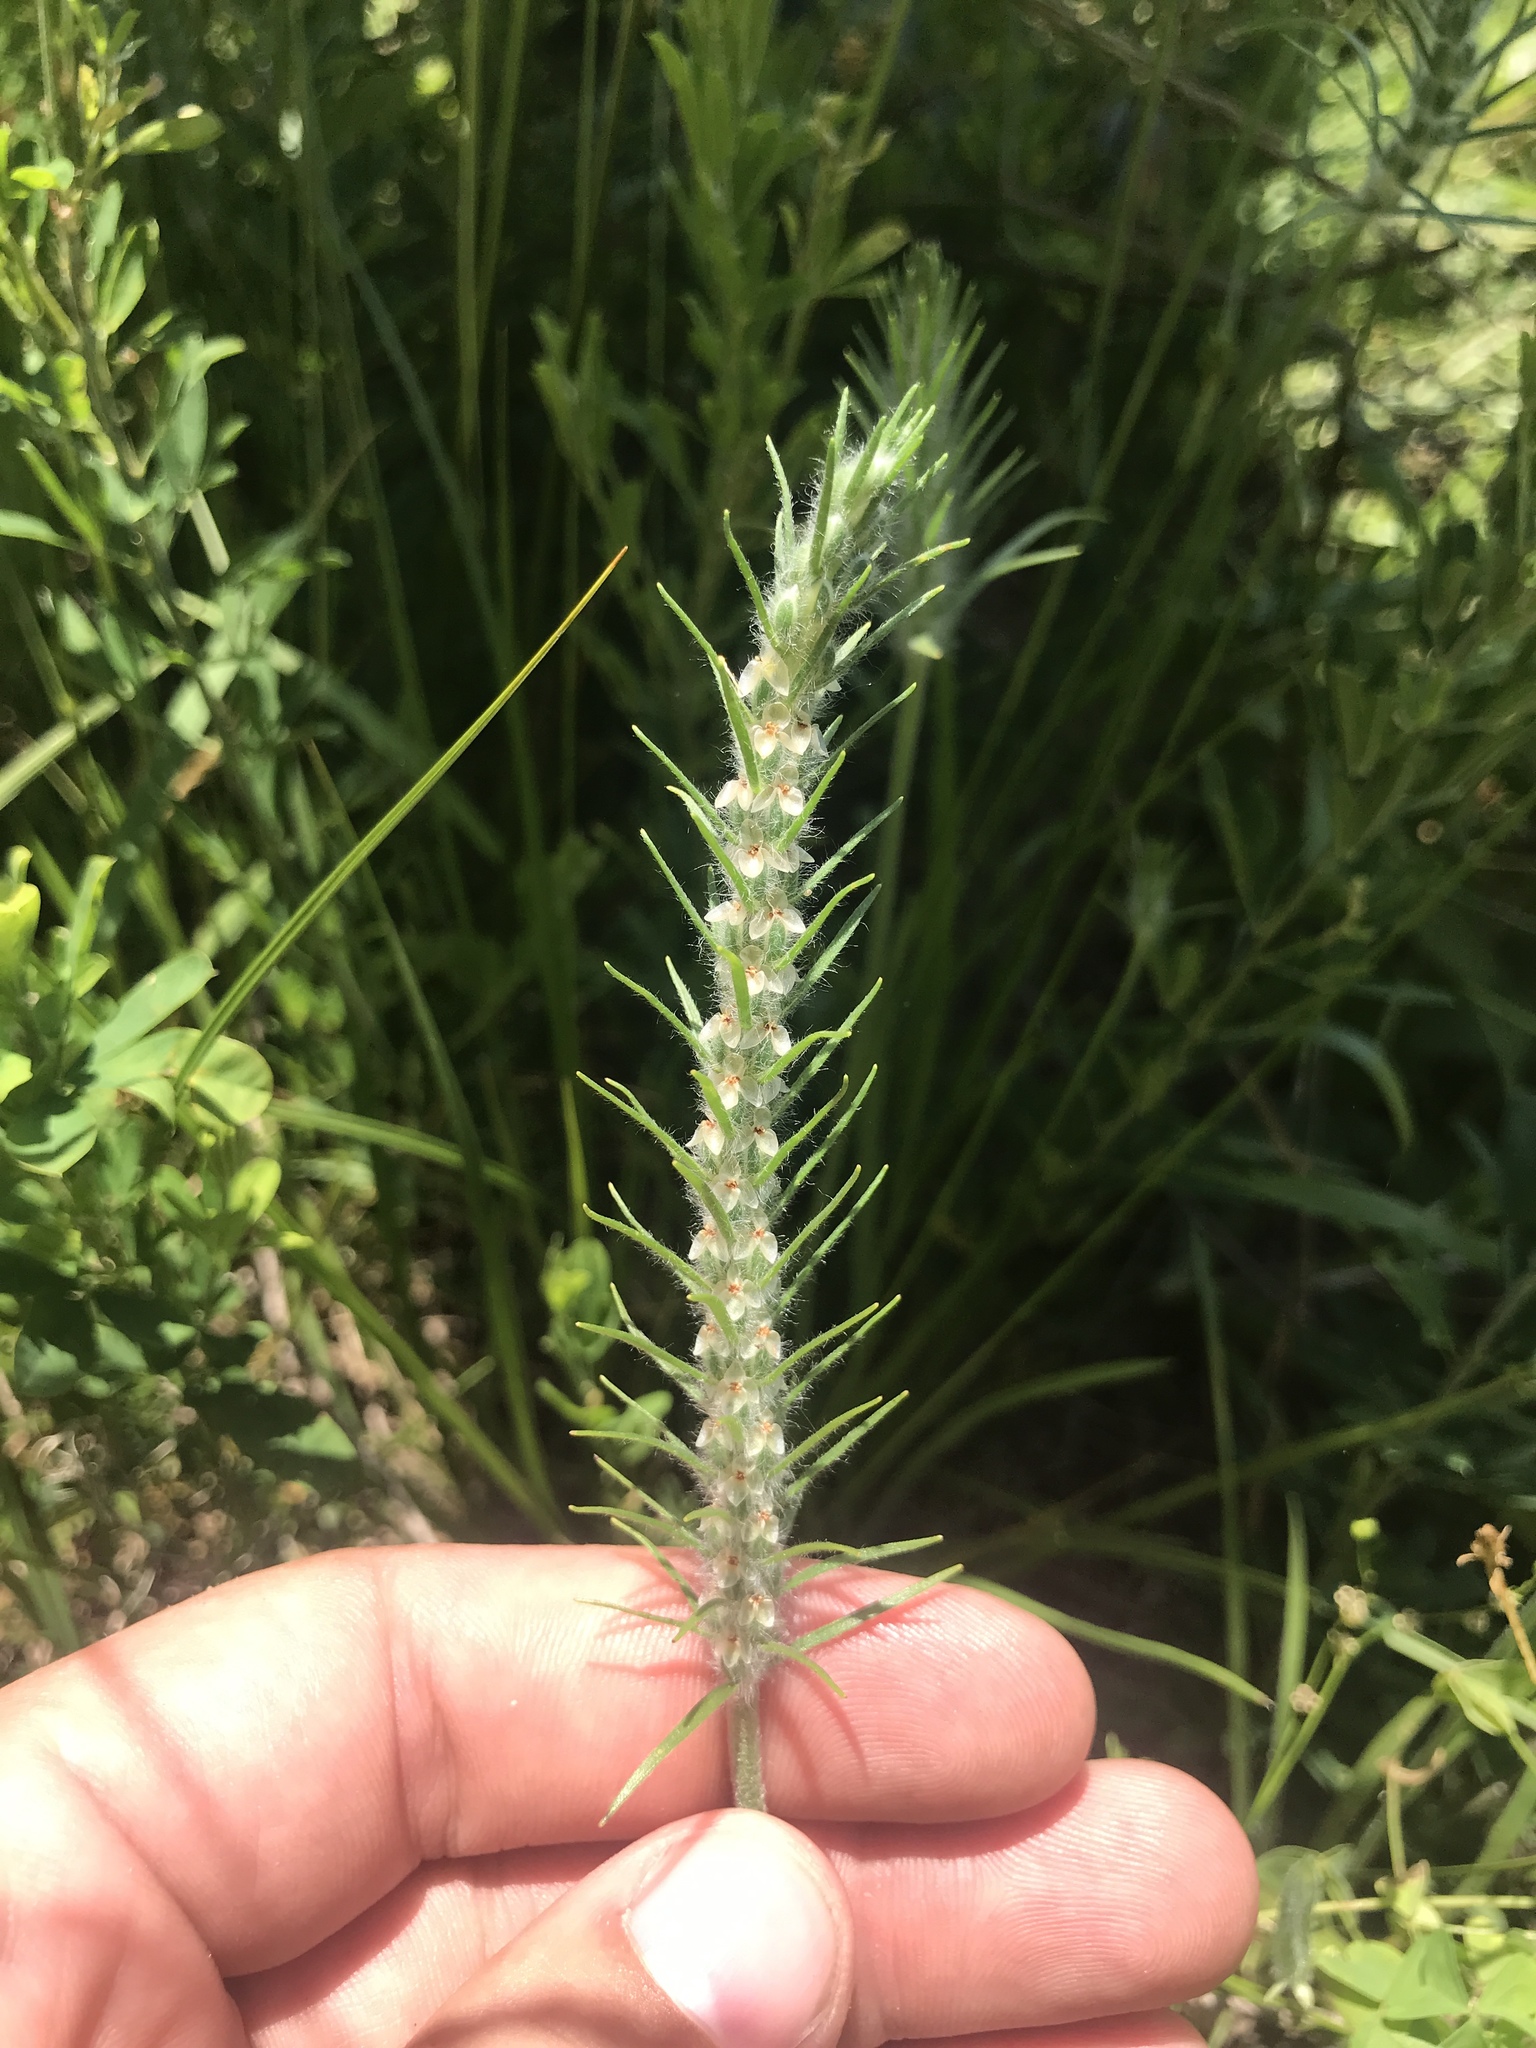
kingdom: Plantae
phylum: Tracheophyta
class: Magnoliopsida
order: Lamiales
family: Plantaginaceae
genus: Plantago
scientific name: Plantago aristata
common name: Bracted plantain
